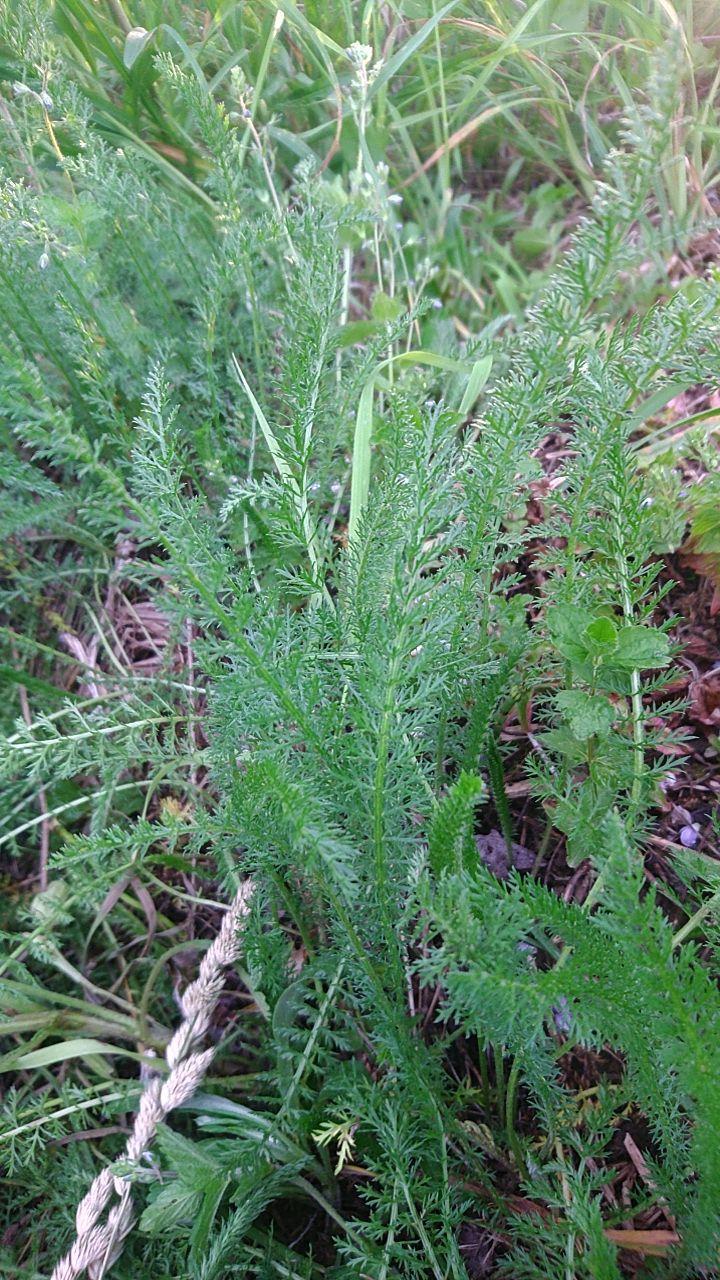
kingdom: Plantae
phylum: Tracheophyta
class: Magnoliopsida
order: Asterales
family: Asteraceae
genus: Achillea
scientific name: Achillea millefolium
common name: Yarrow
